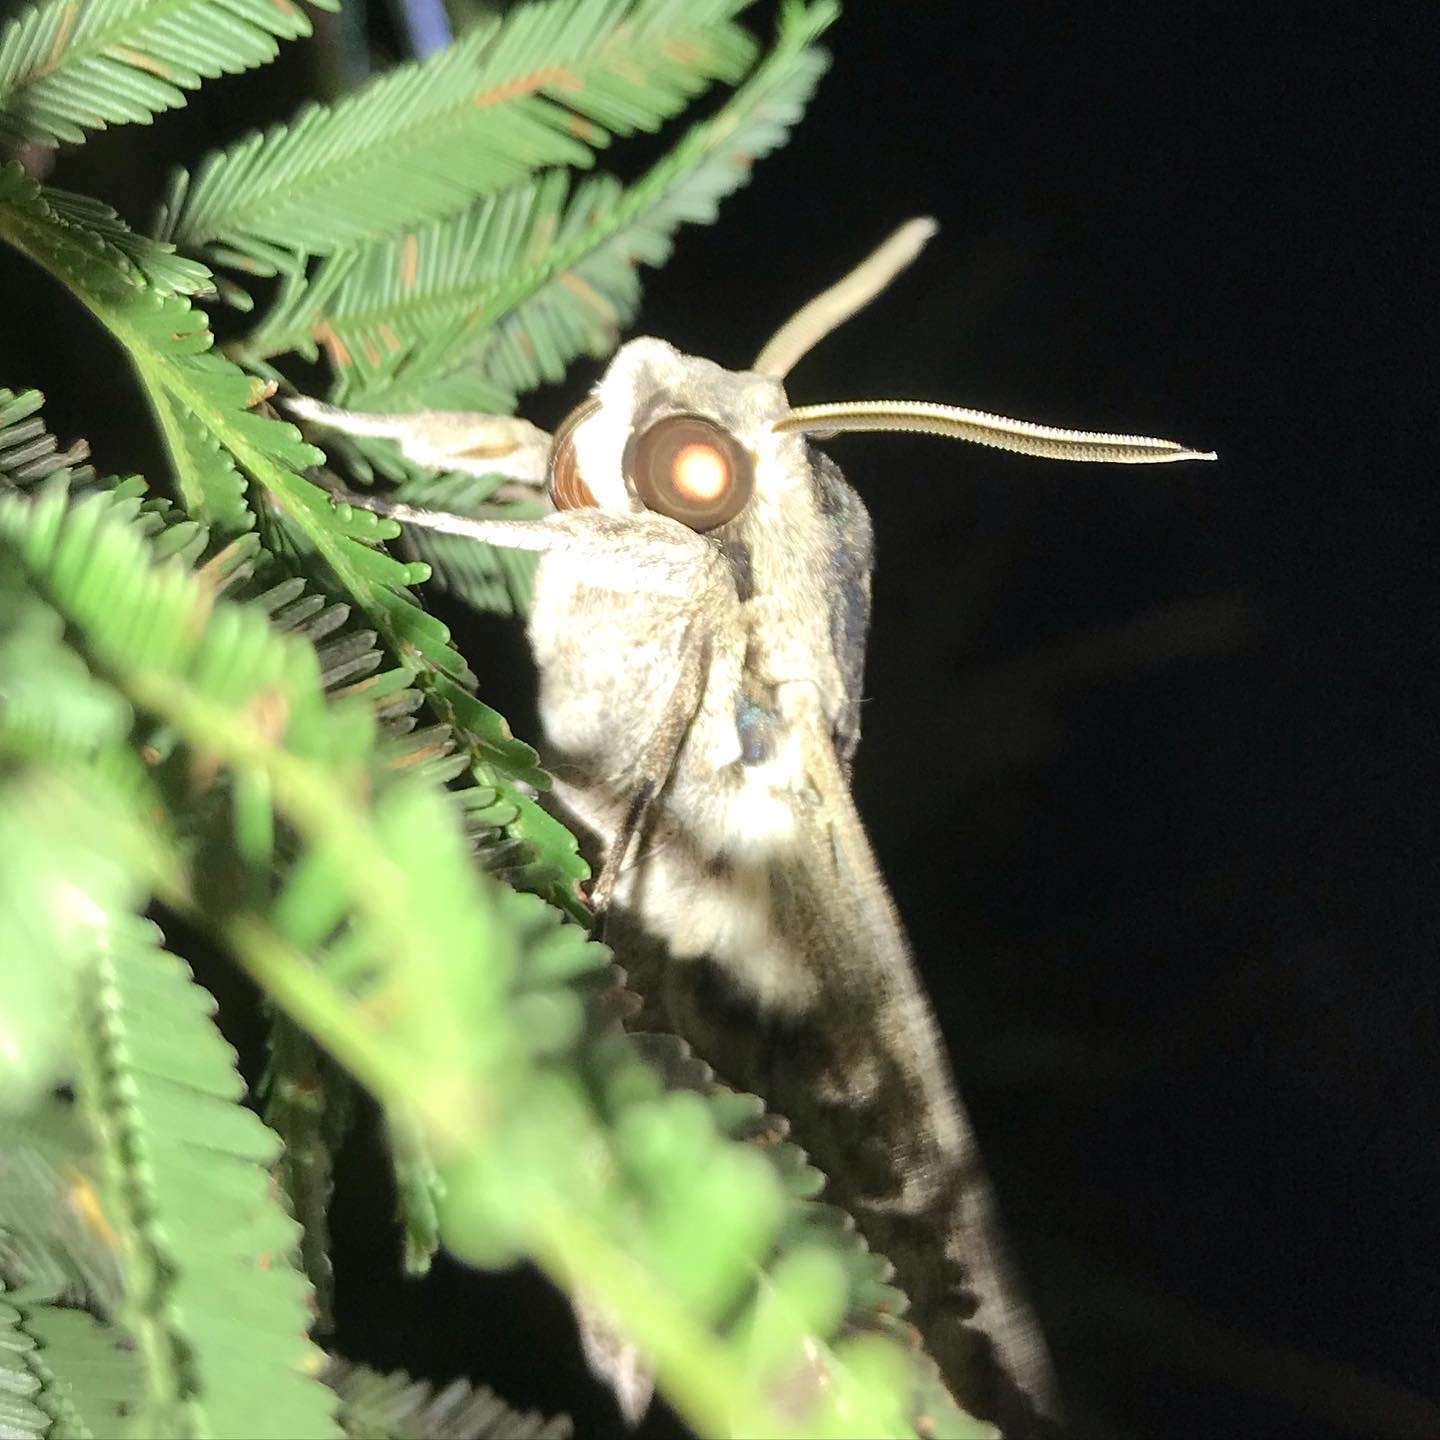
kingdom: Animalia
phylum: Arthropoda
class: Insecta
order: Lepidoptera
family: Sphingidae
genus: Agrius
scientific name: Agrius convolvuli
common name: Convolvulus hawkmoth
